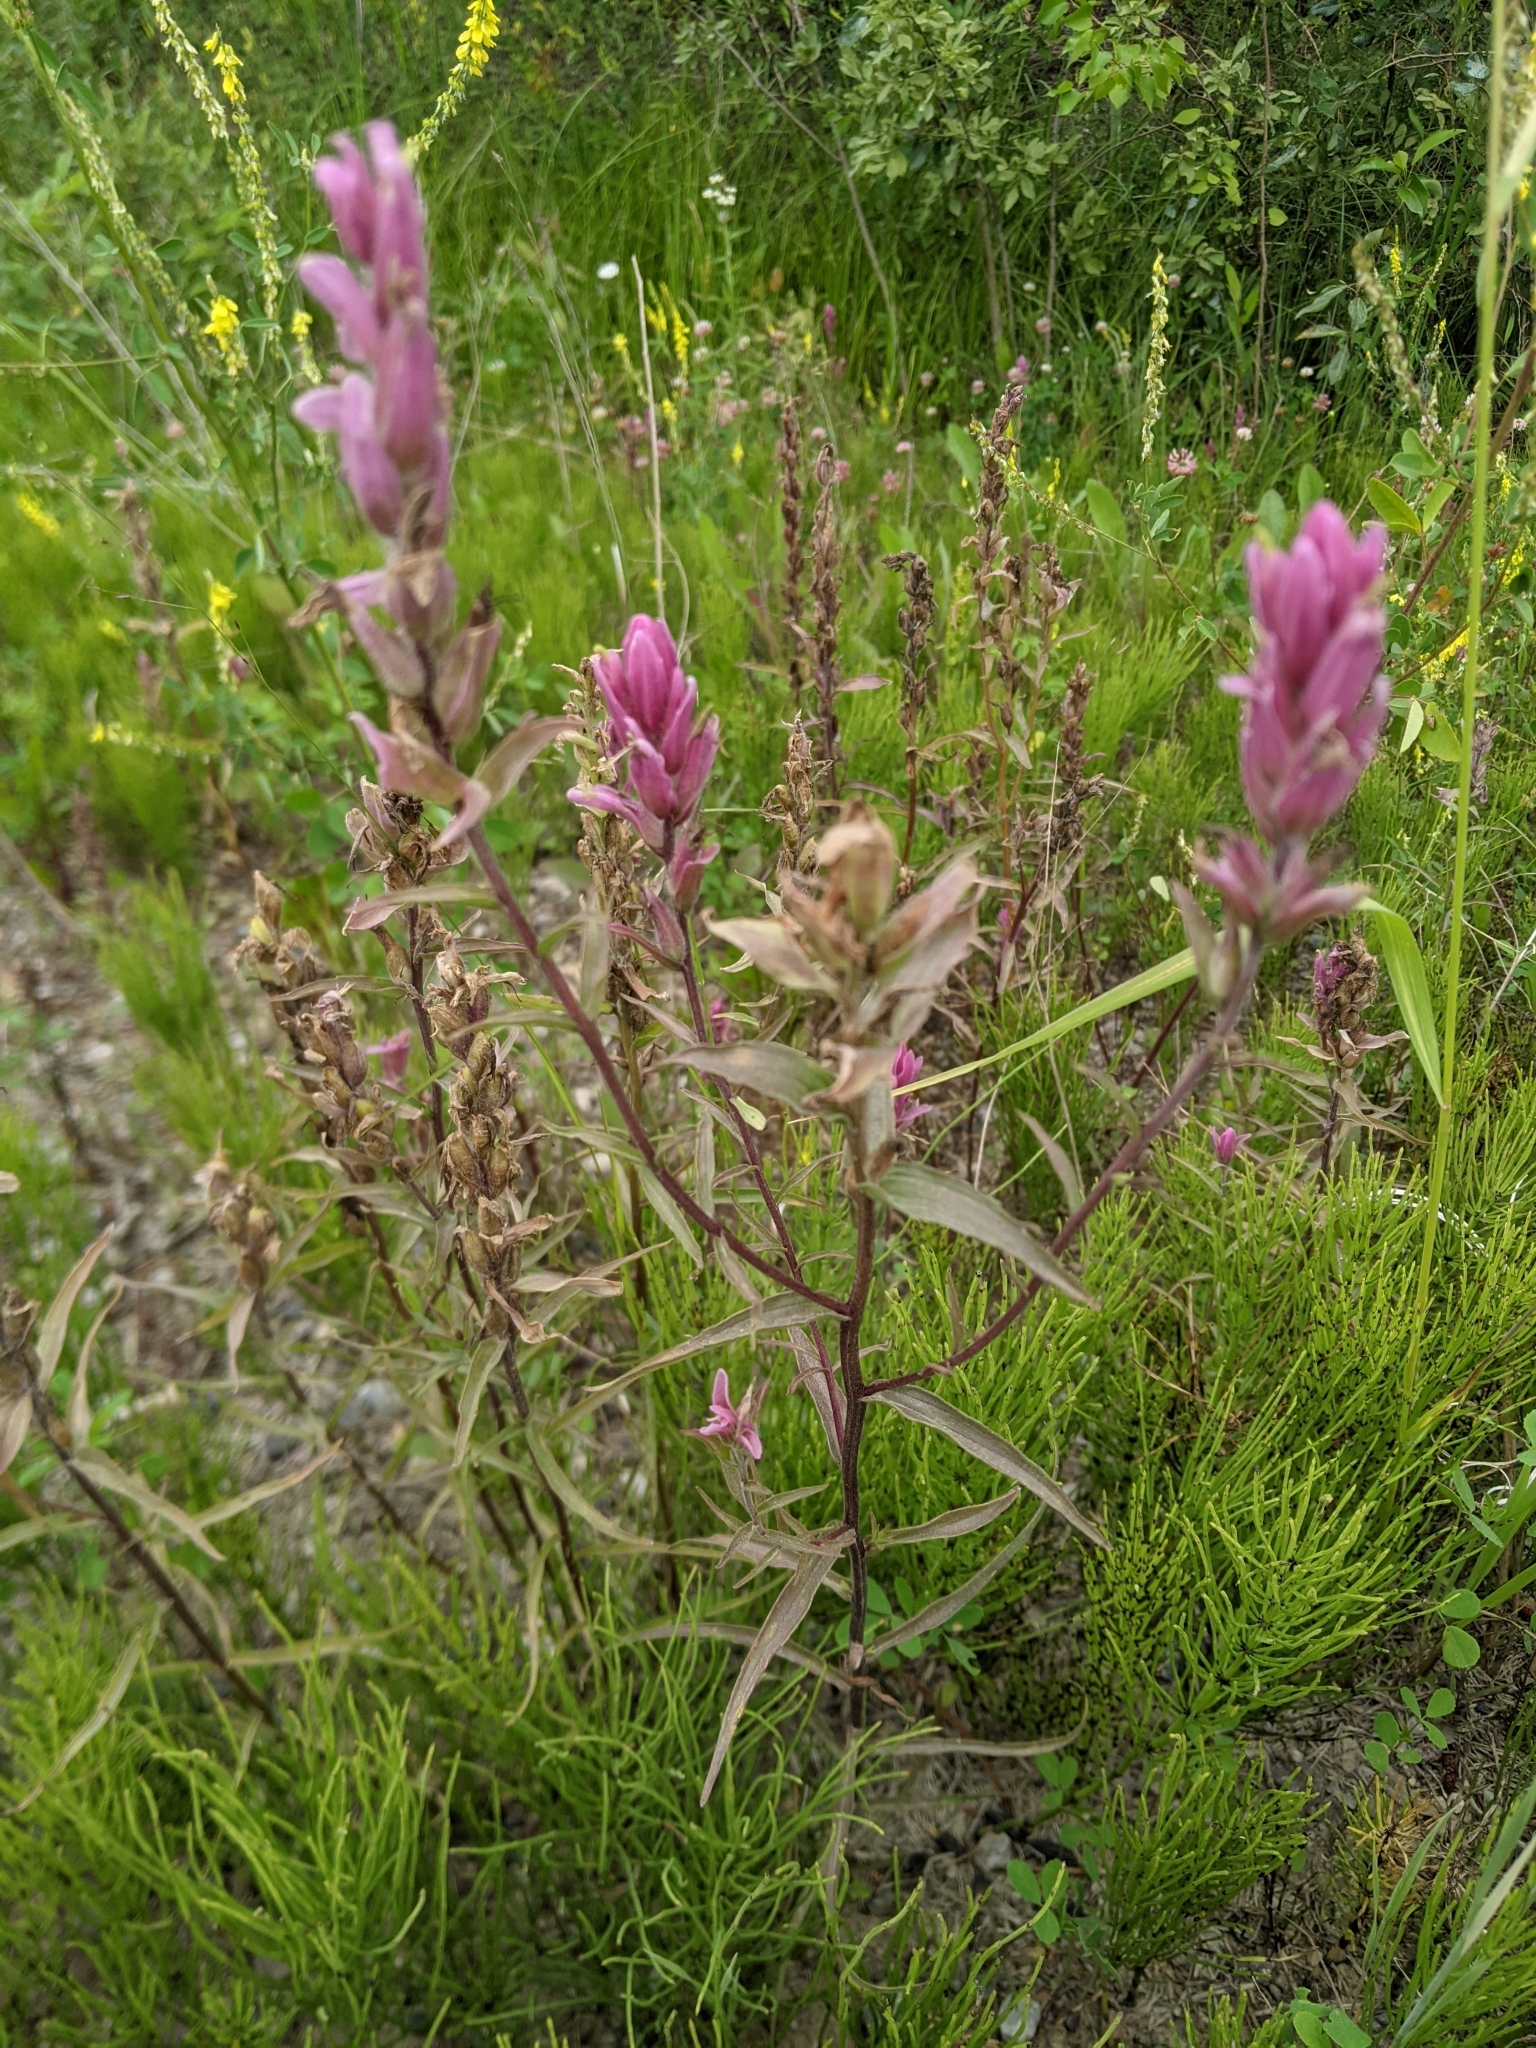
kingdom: Plantae
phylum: Tracheophyta
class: Magnoliopsida
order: Lamiales
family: Orobanchaceae
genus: Castilleja
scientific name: Castilleja miniata
